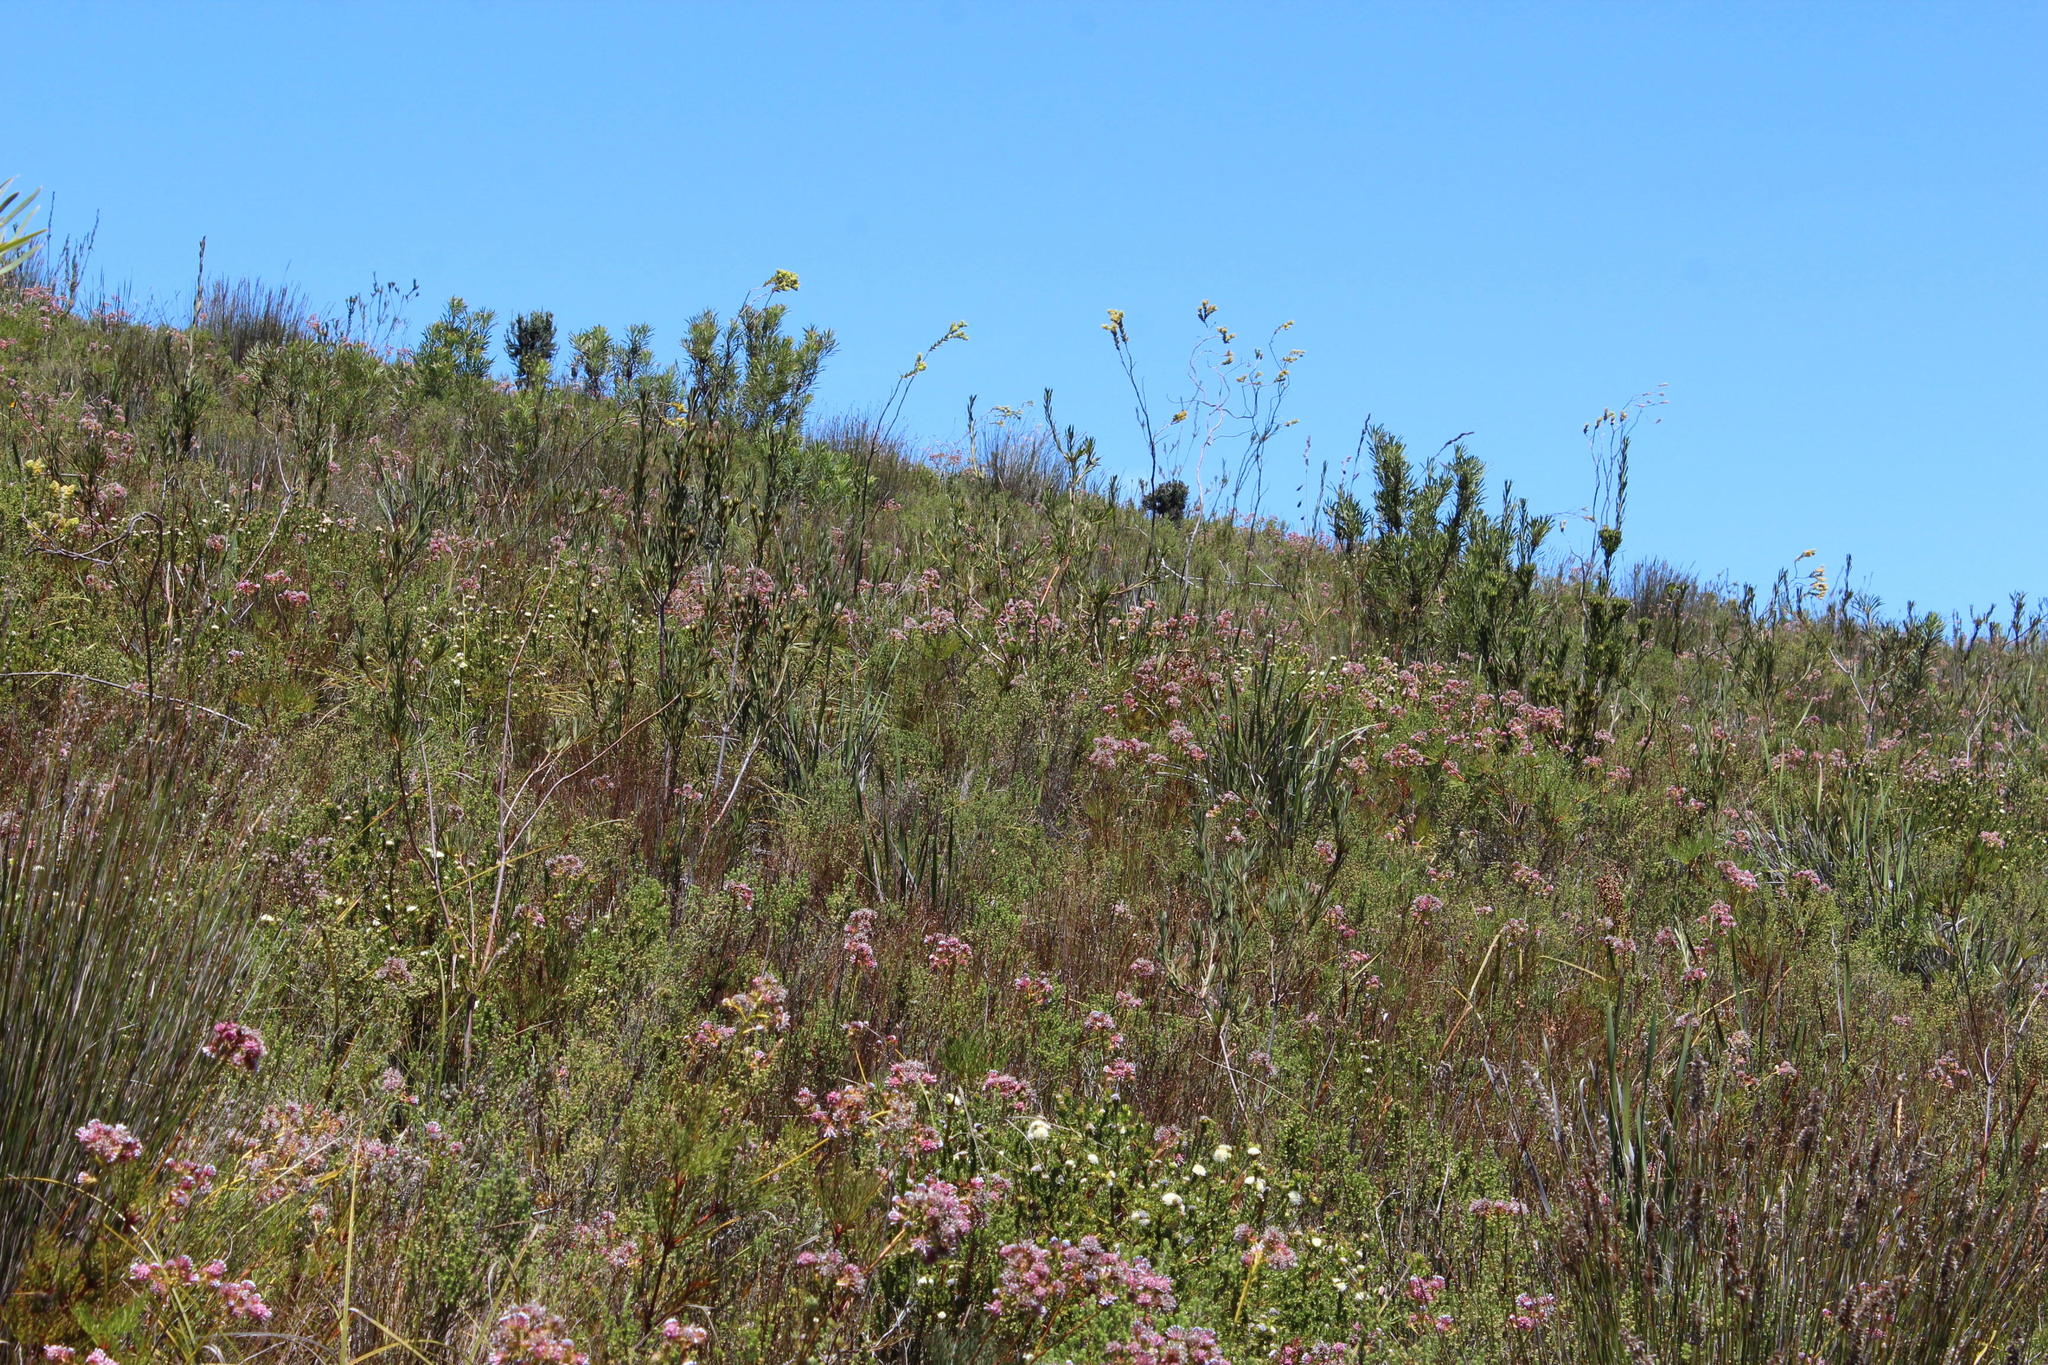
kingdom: Plantae
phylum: Tracheophyta
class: Magnoliopsida
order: Santalales
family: Thesiaceae
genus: Thesium
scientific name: Thesium euphorbioides
